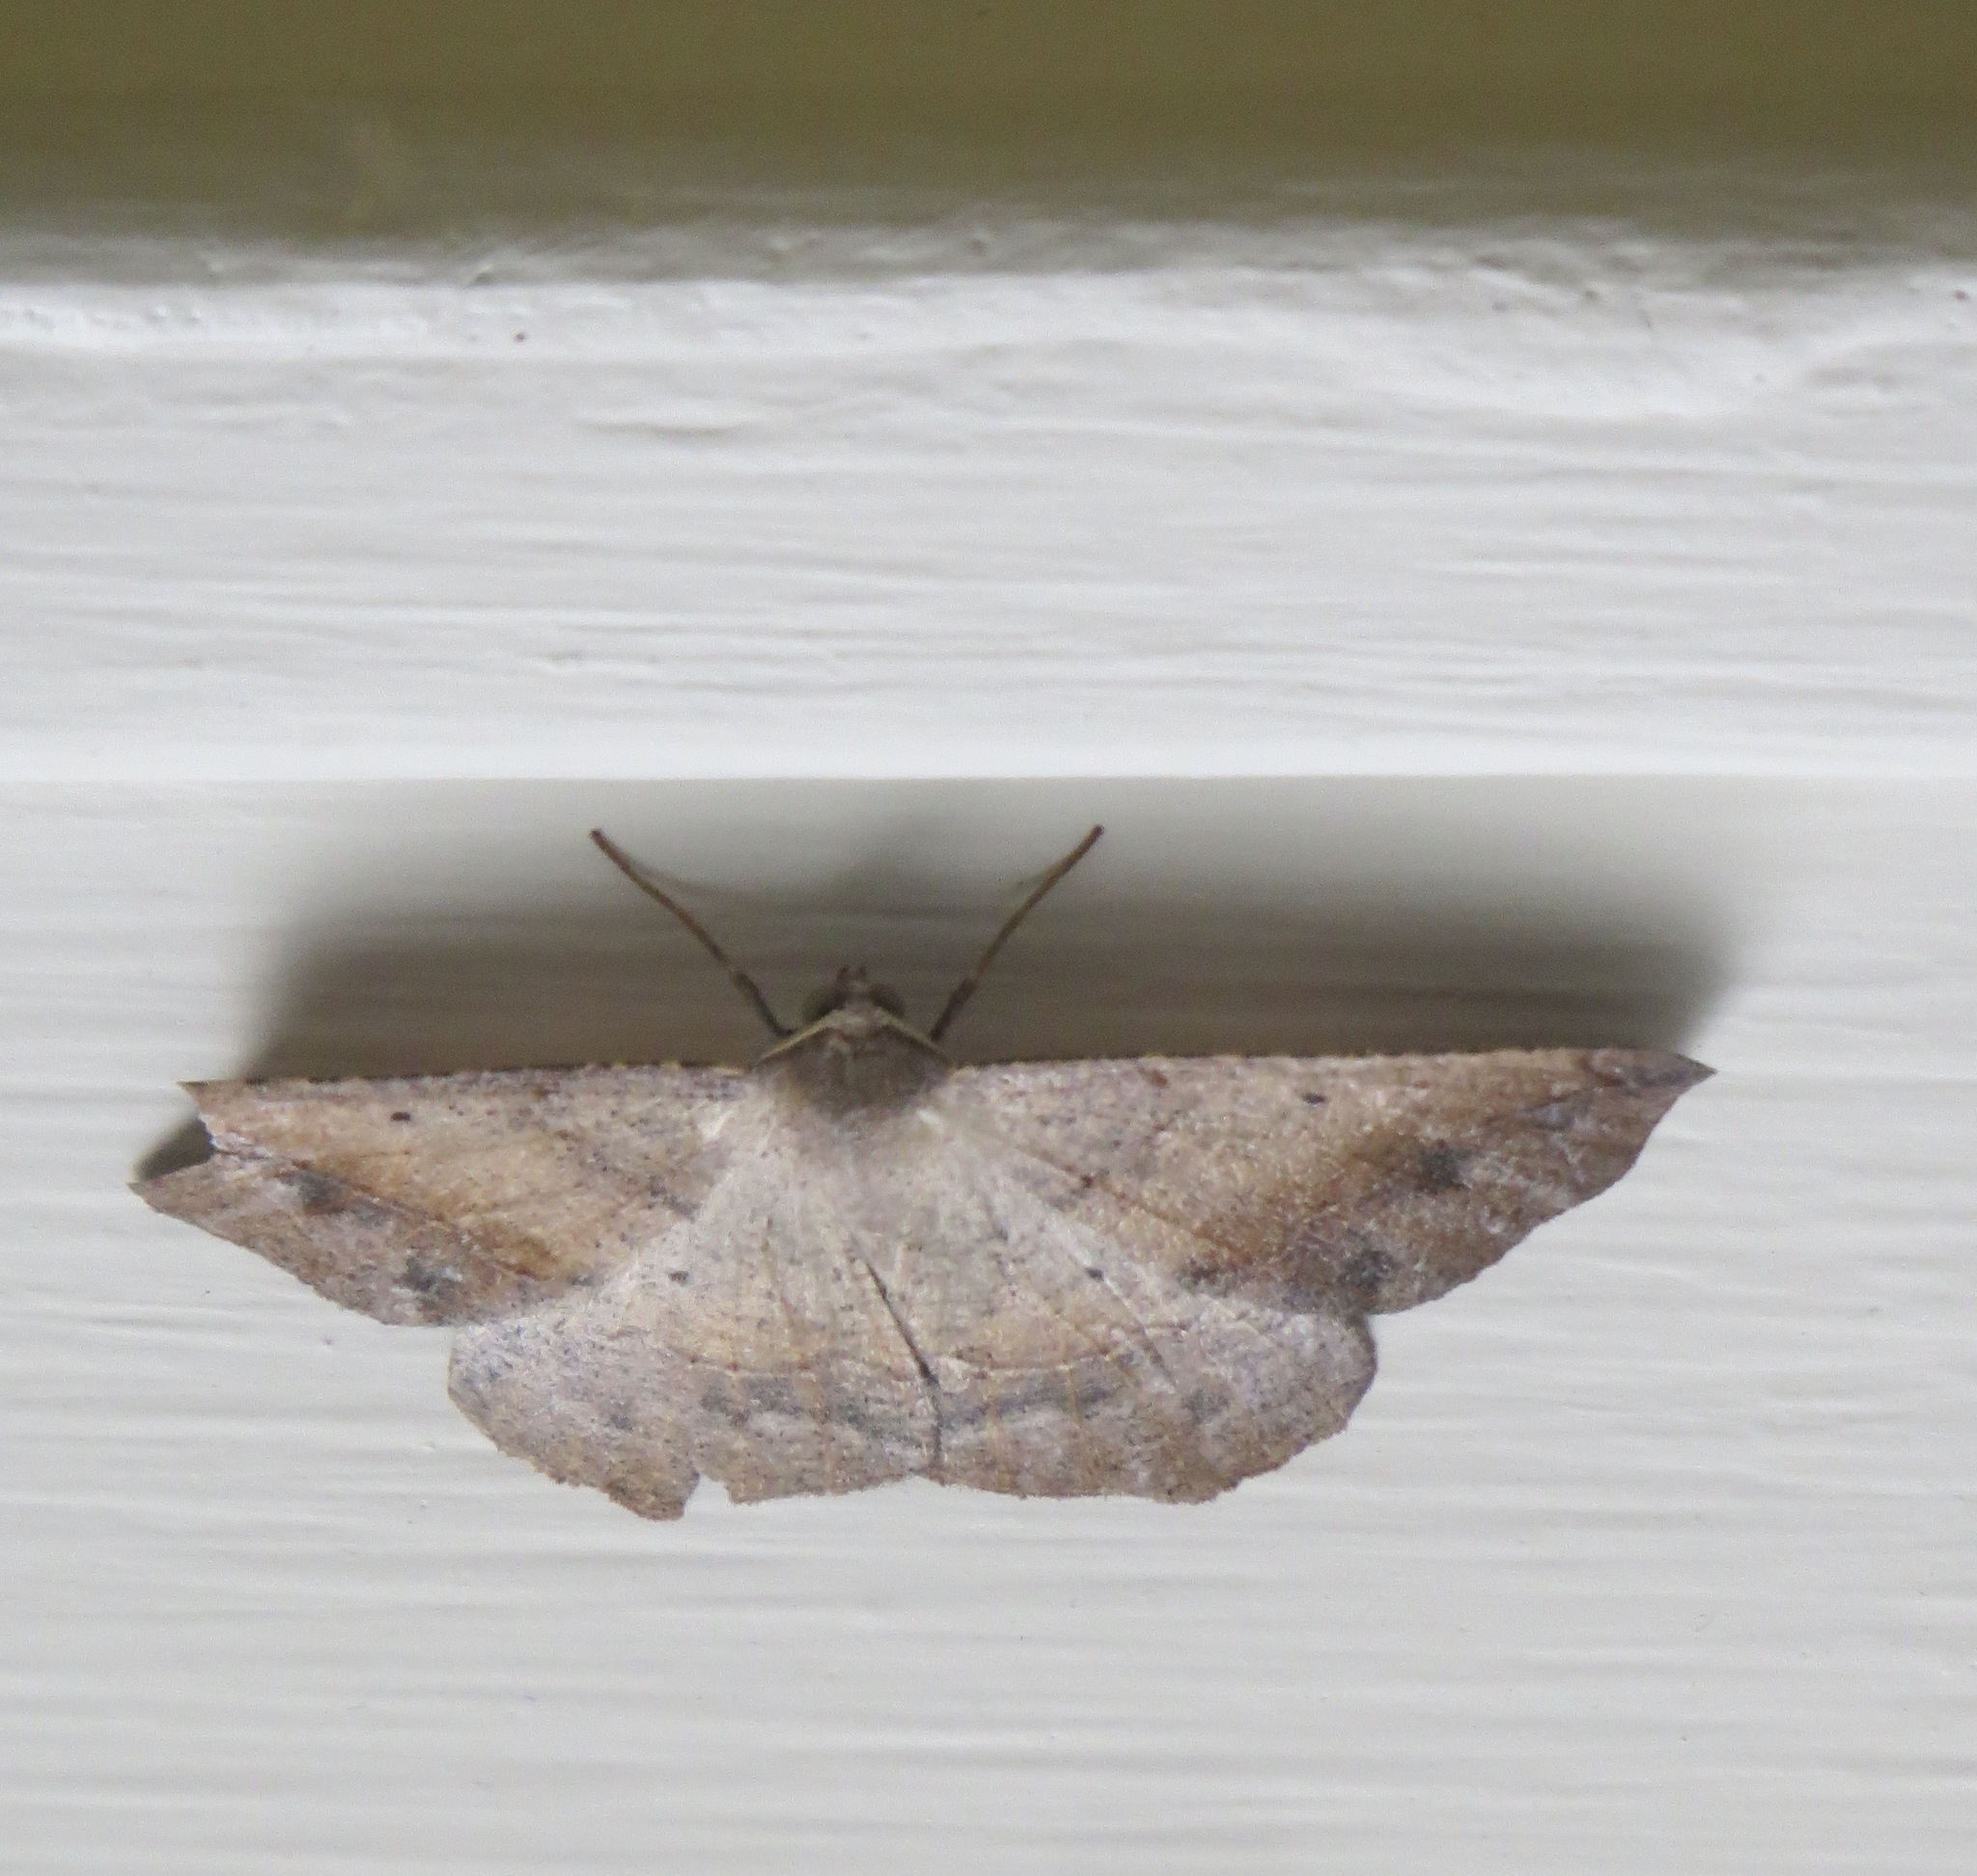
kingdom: Animalia
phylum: Arthropoda
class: Insecta
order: Lepidoptera
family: Geometridae
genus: Prochoerodes
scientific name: Prochoerodes forficaria
